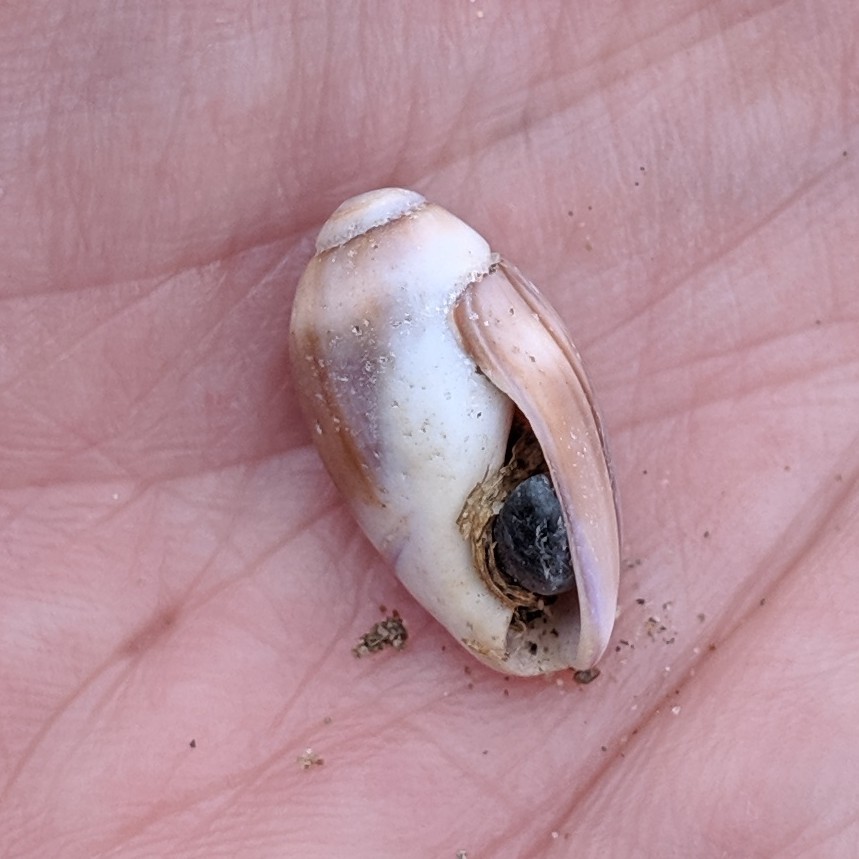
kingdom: Animalia
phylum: Mollusca
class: Gastropoda
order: Neogastropoda
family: Olividae
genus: Callianax
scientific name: Callianax biplicata
